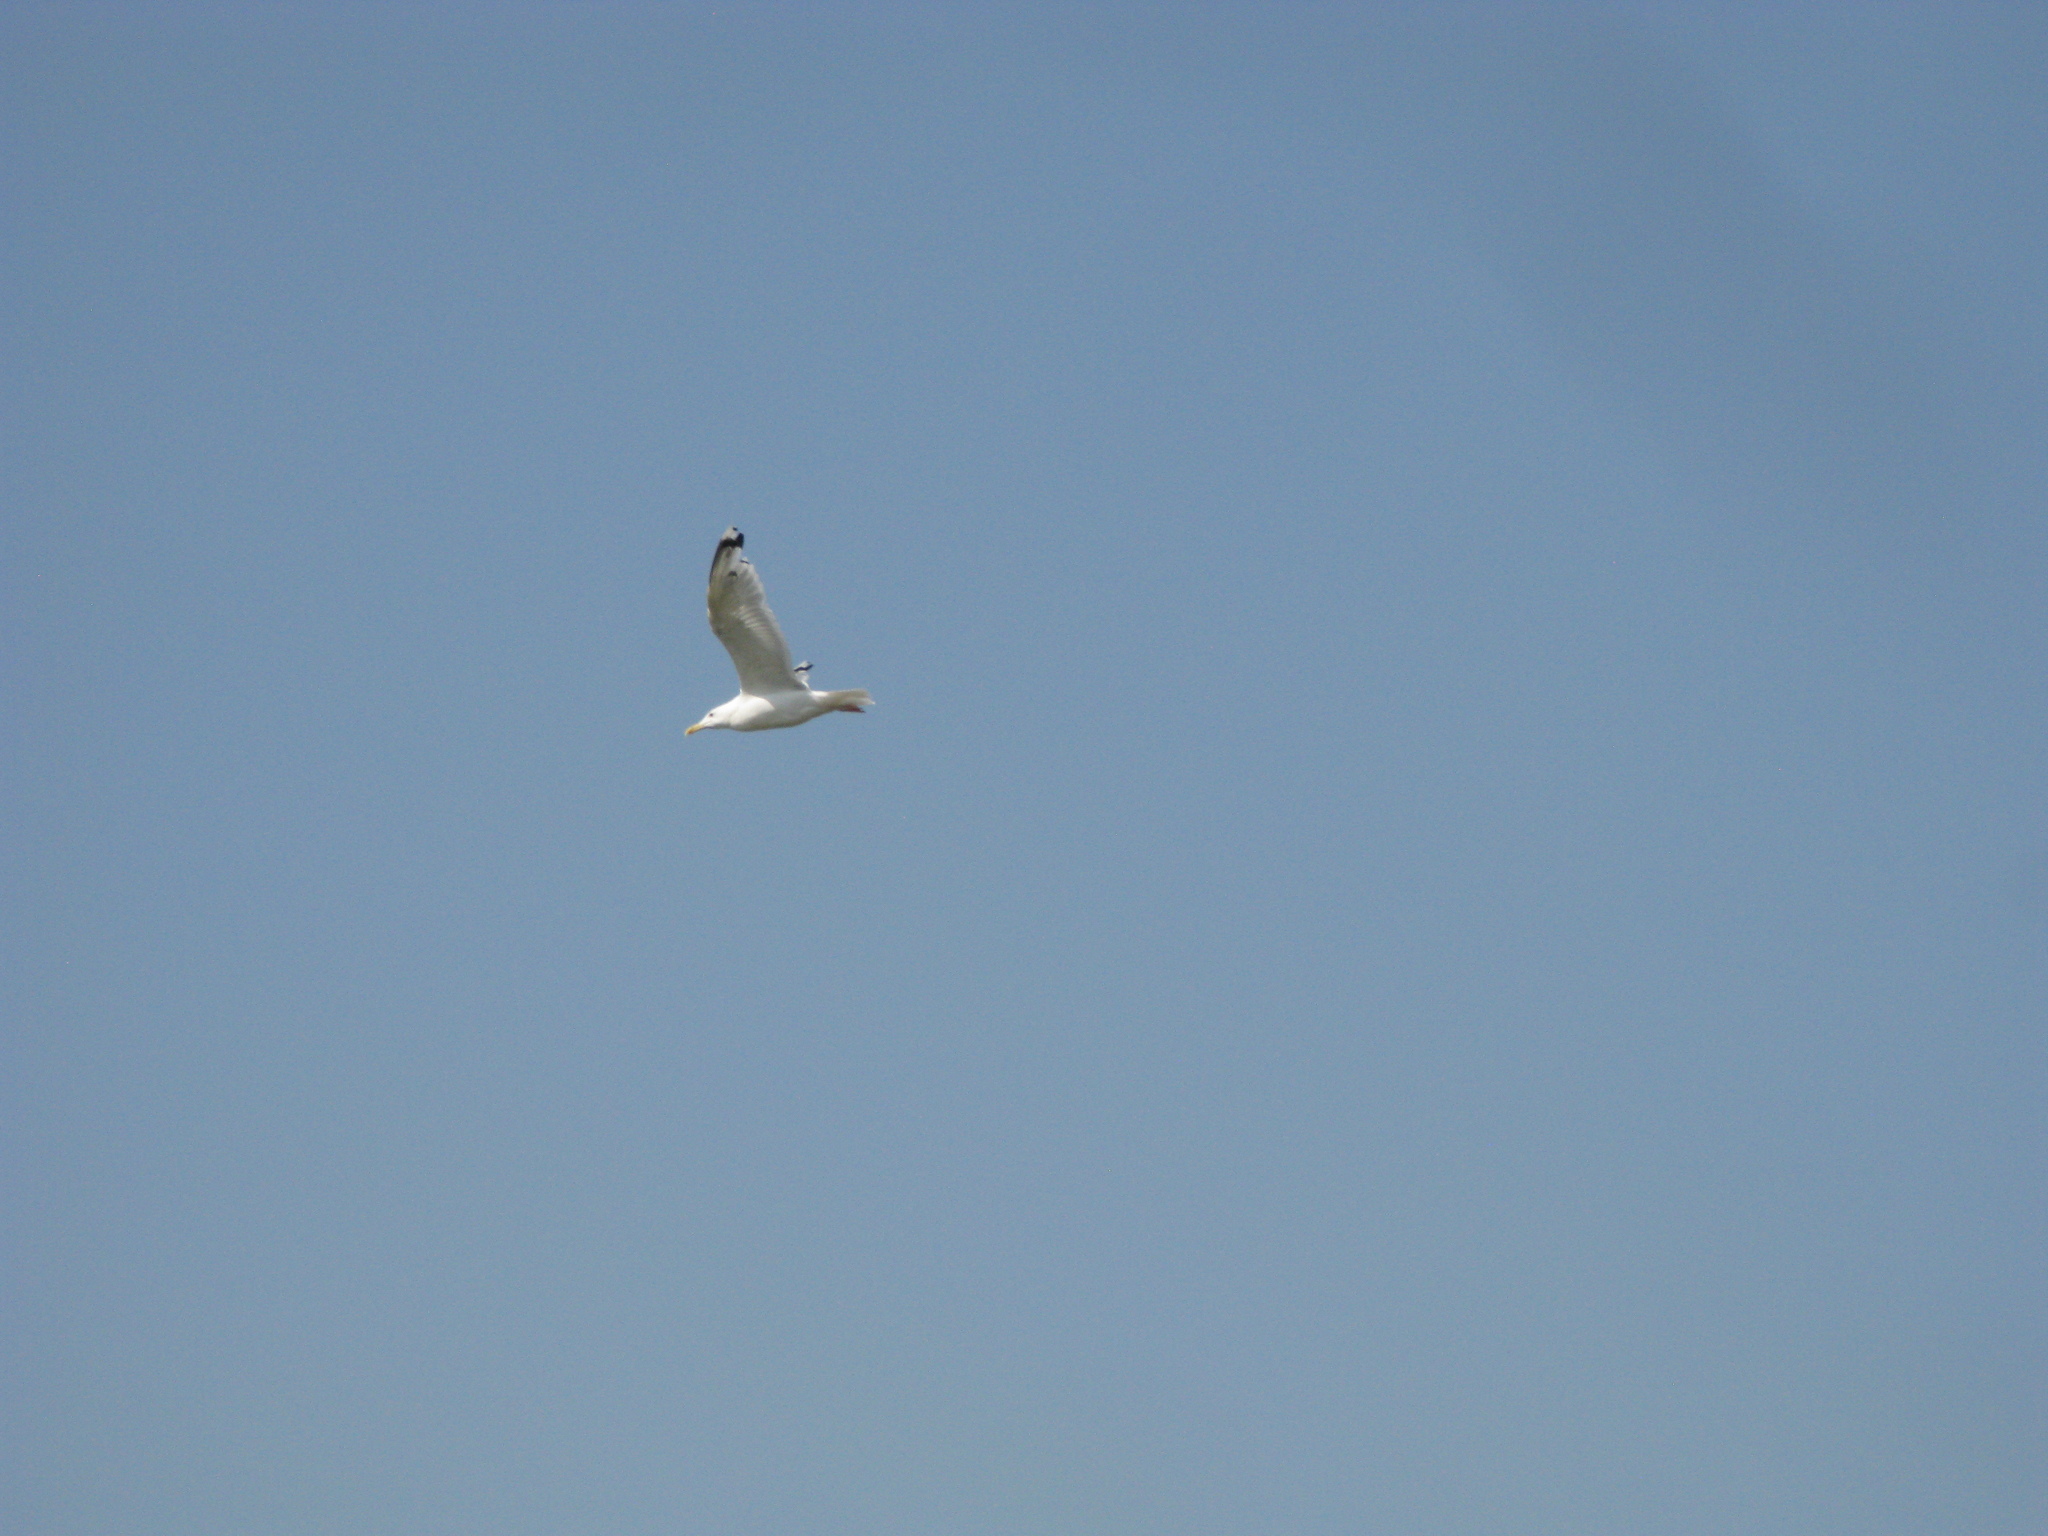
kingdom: Animalia
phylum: Chordata
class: Aves
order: Charadriiformes
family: Laridae
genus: Larus
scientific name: Larus cachinnans
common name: Caspian gull
